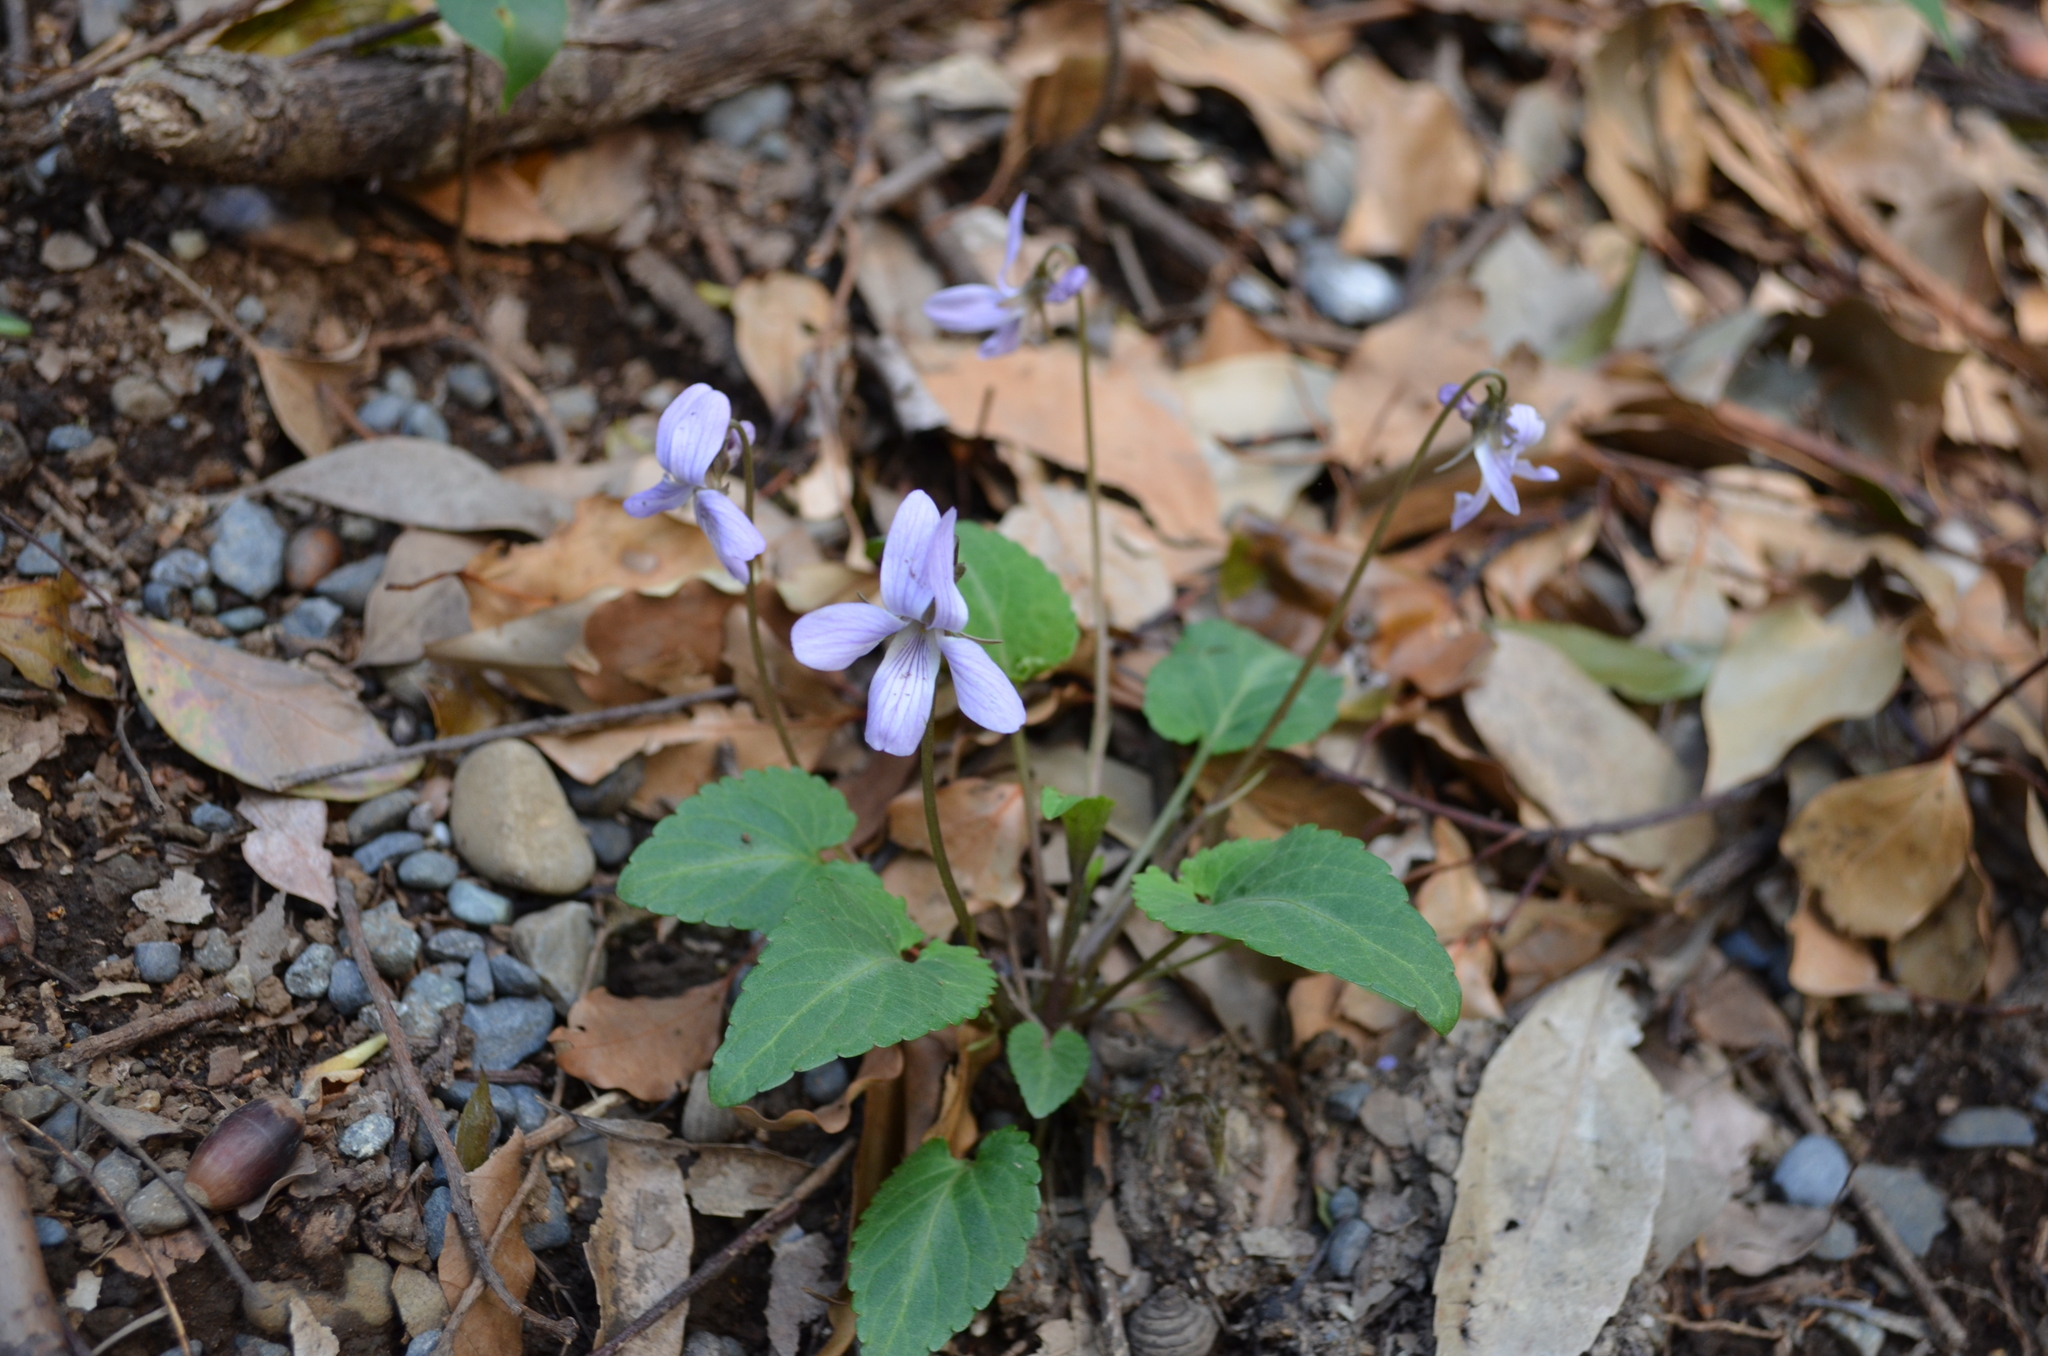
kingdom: Plantae
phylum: Tracheophyta
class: Magnoliopsida
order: Malpighiales
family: Violaceae
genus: Viola
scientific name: Viola japonica
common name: Japanese violet
